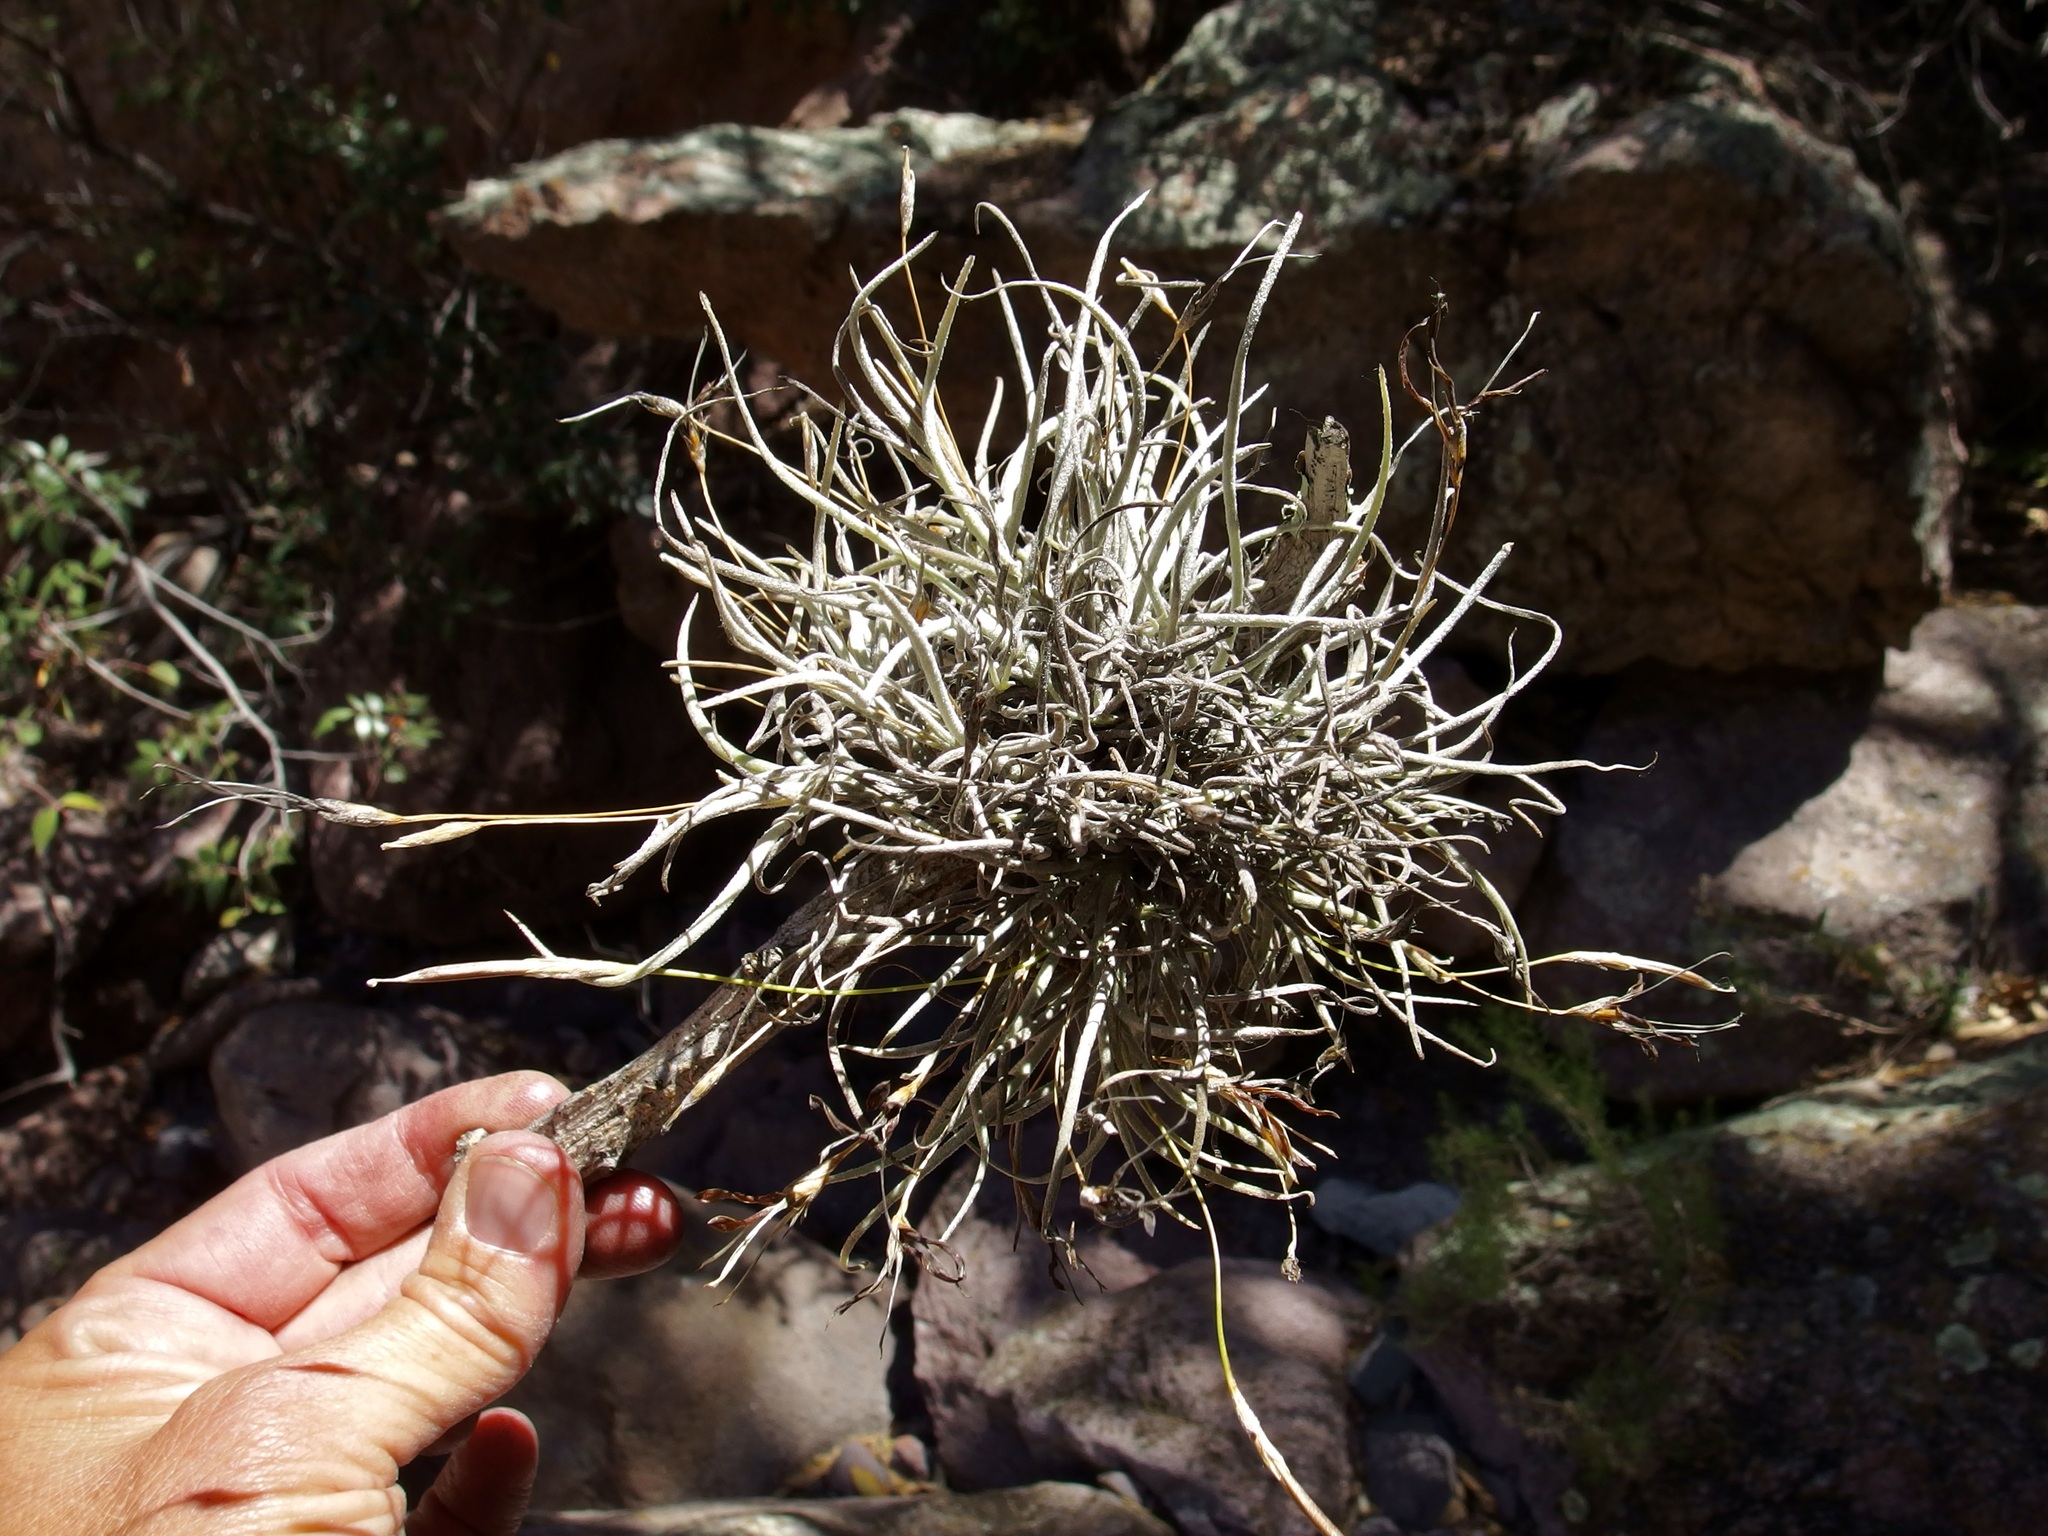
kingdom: Plantae
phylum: Tracheophyta
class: Liliopsida
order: Poales
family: Bromeliaceae
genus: Tillandsia
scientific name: Tillandsia recurvata
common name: Small ballmoss
